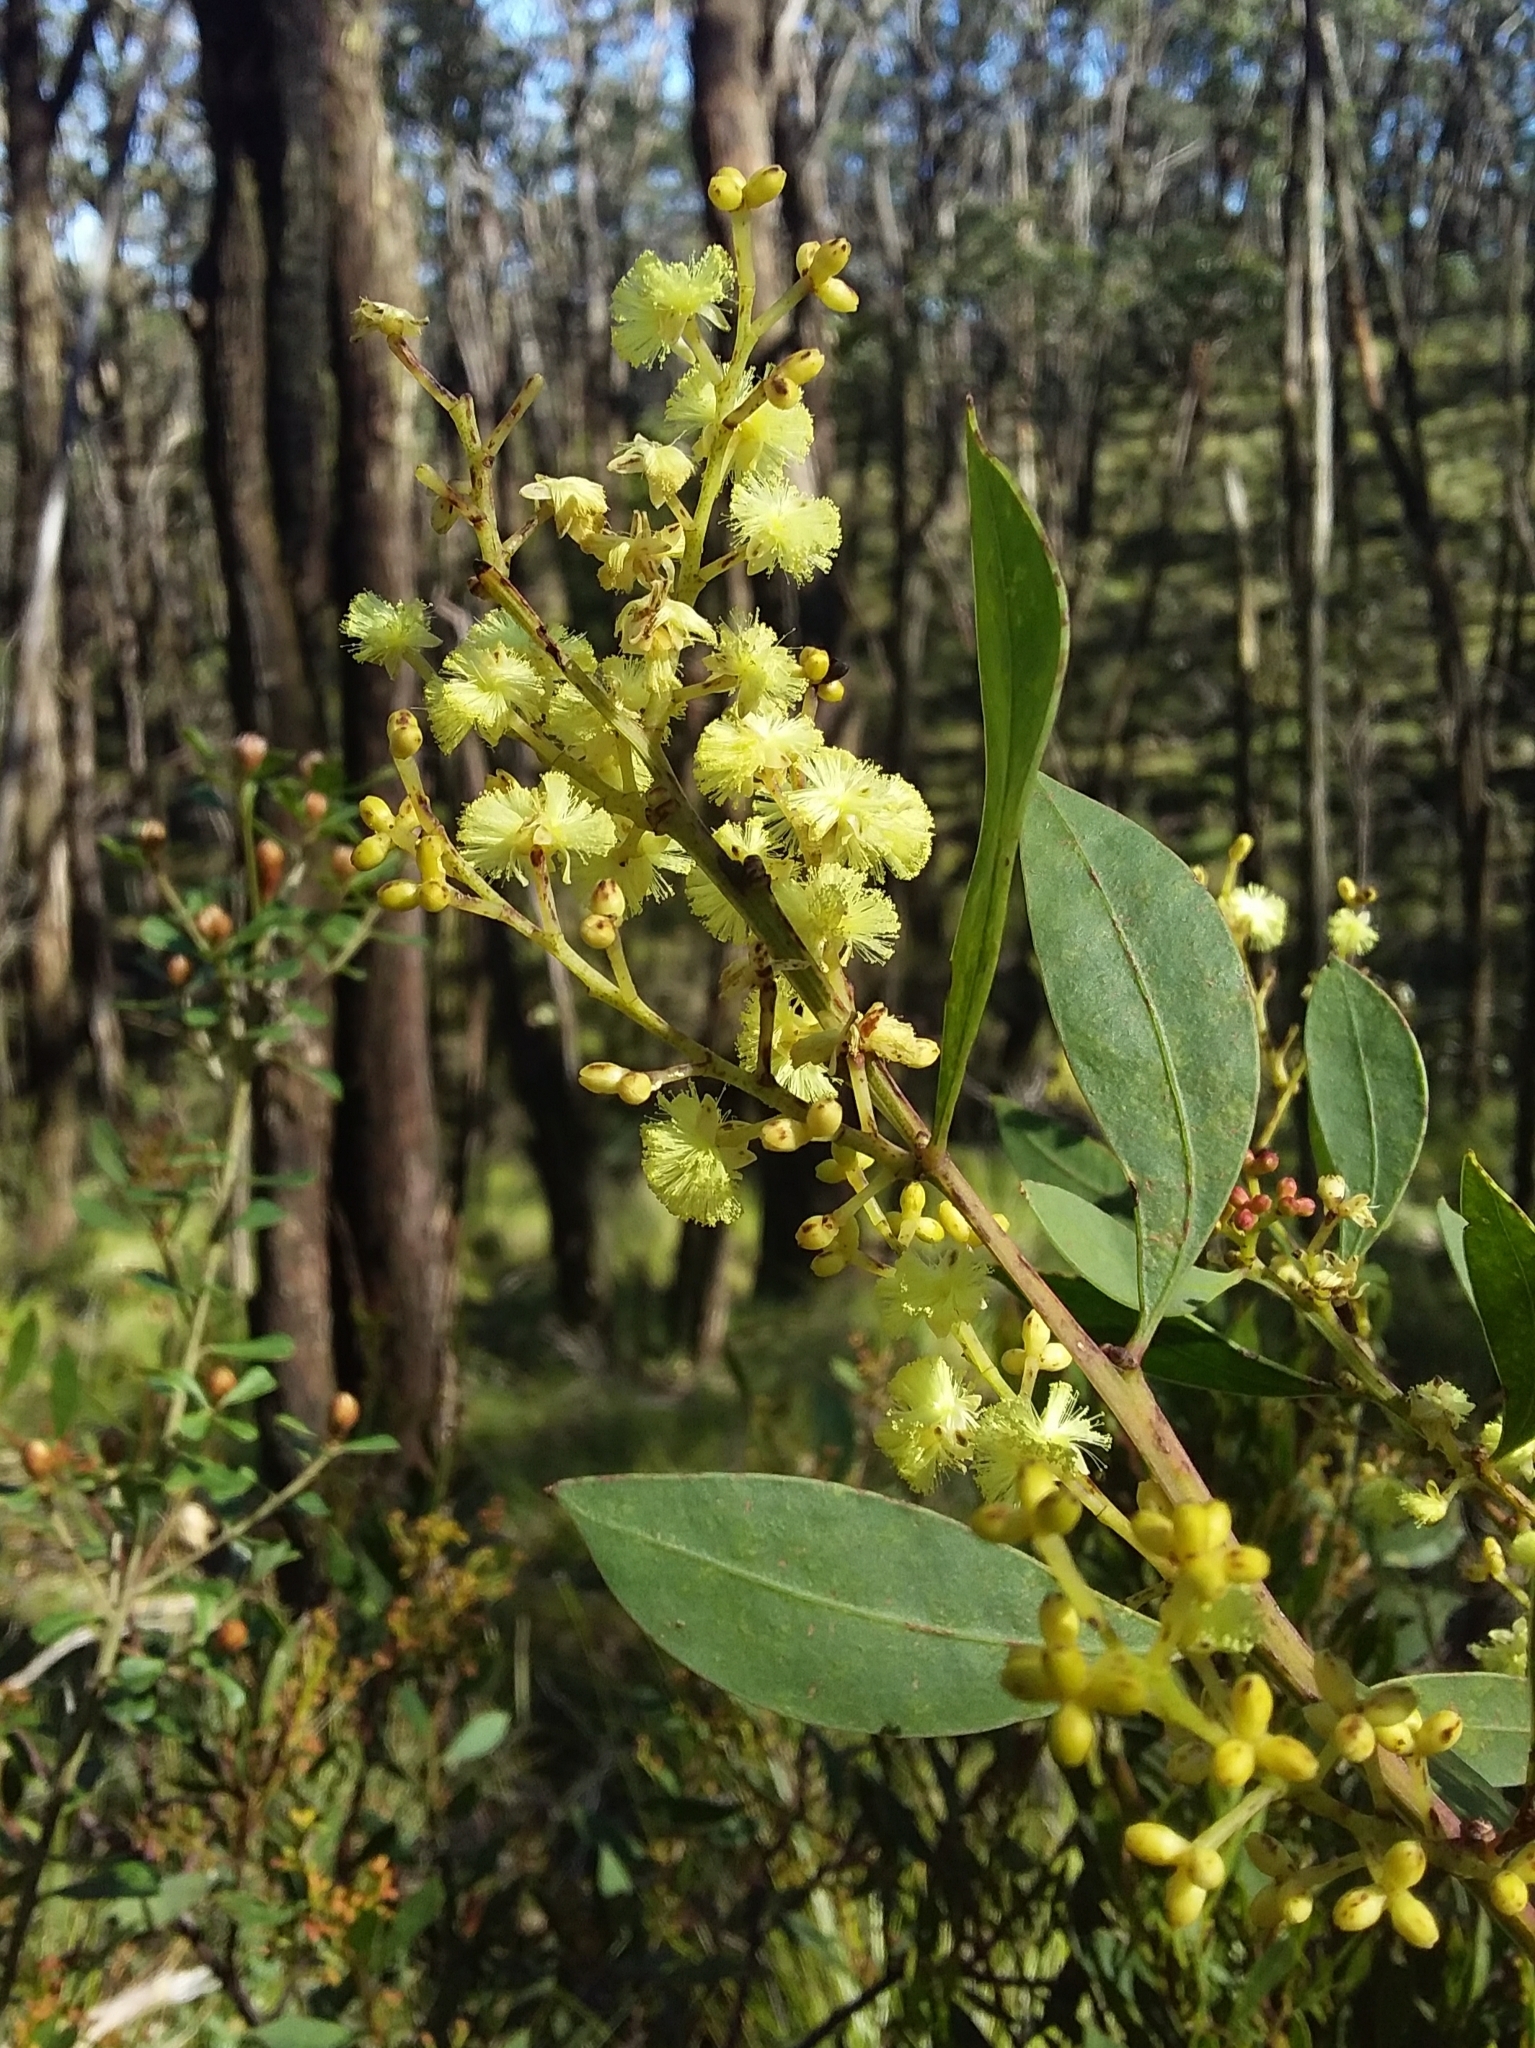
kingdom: Plantae
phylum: Tracheophyta
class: Magnoliopsida
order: Fabales
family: Fabaceae
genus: Acacia
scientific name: Acacia myrtifolia
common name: Myrtle wattle
